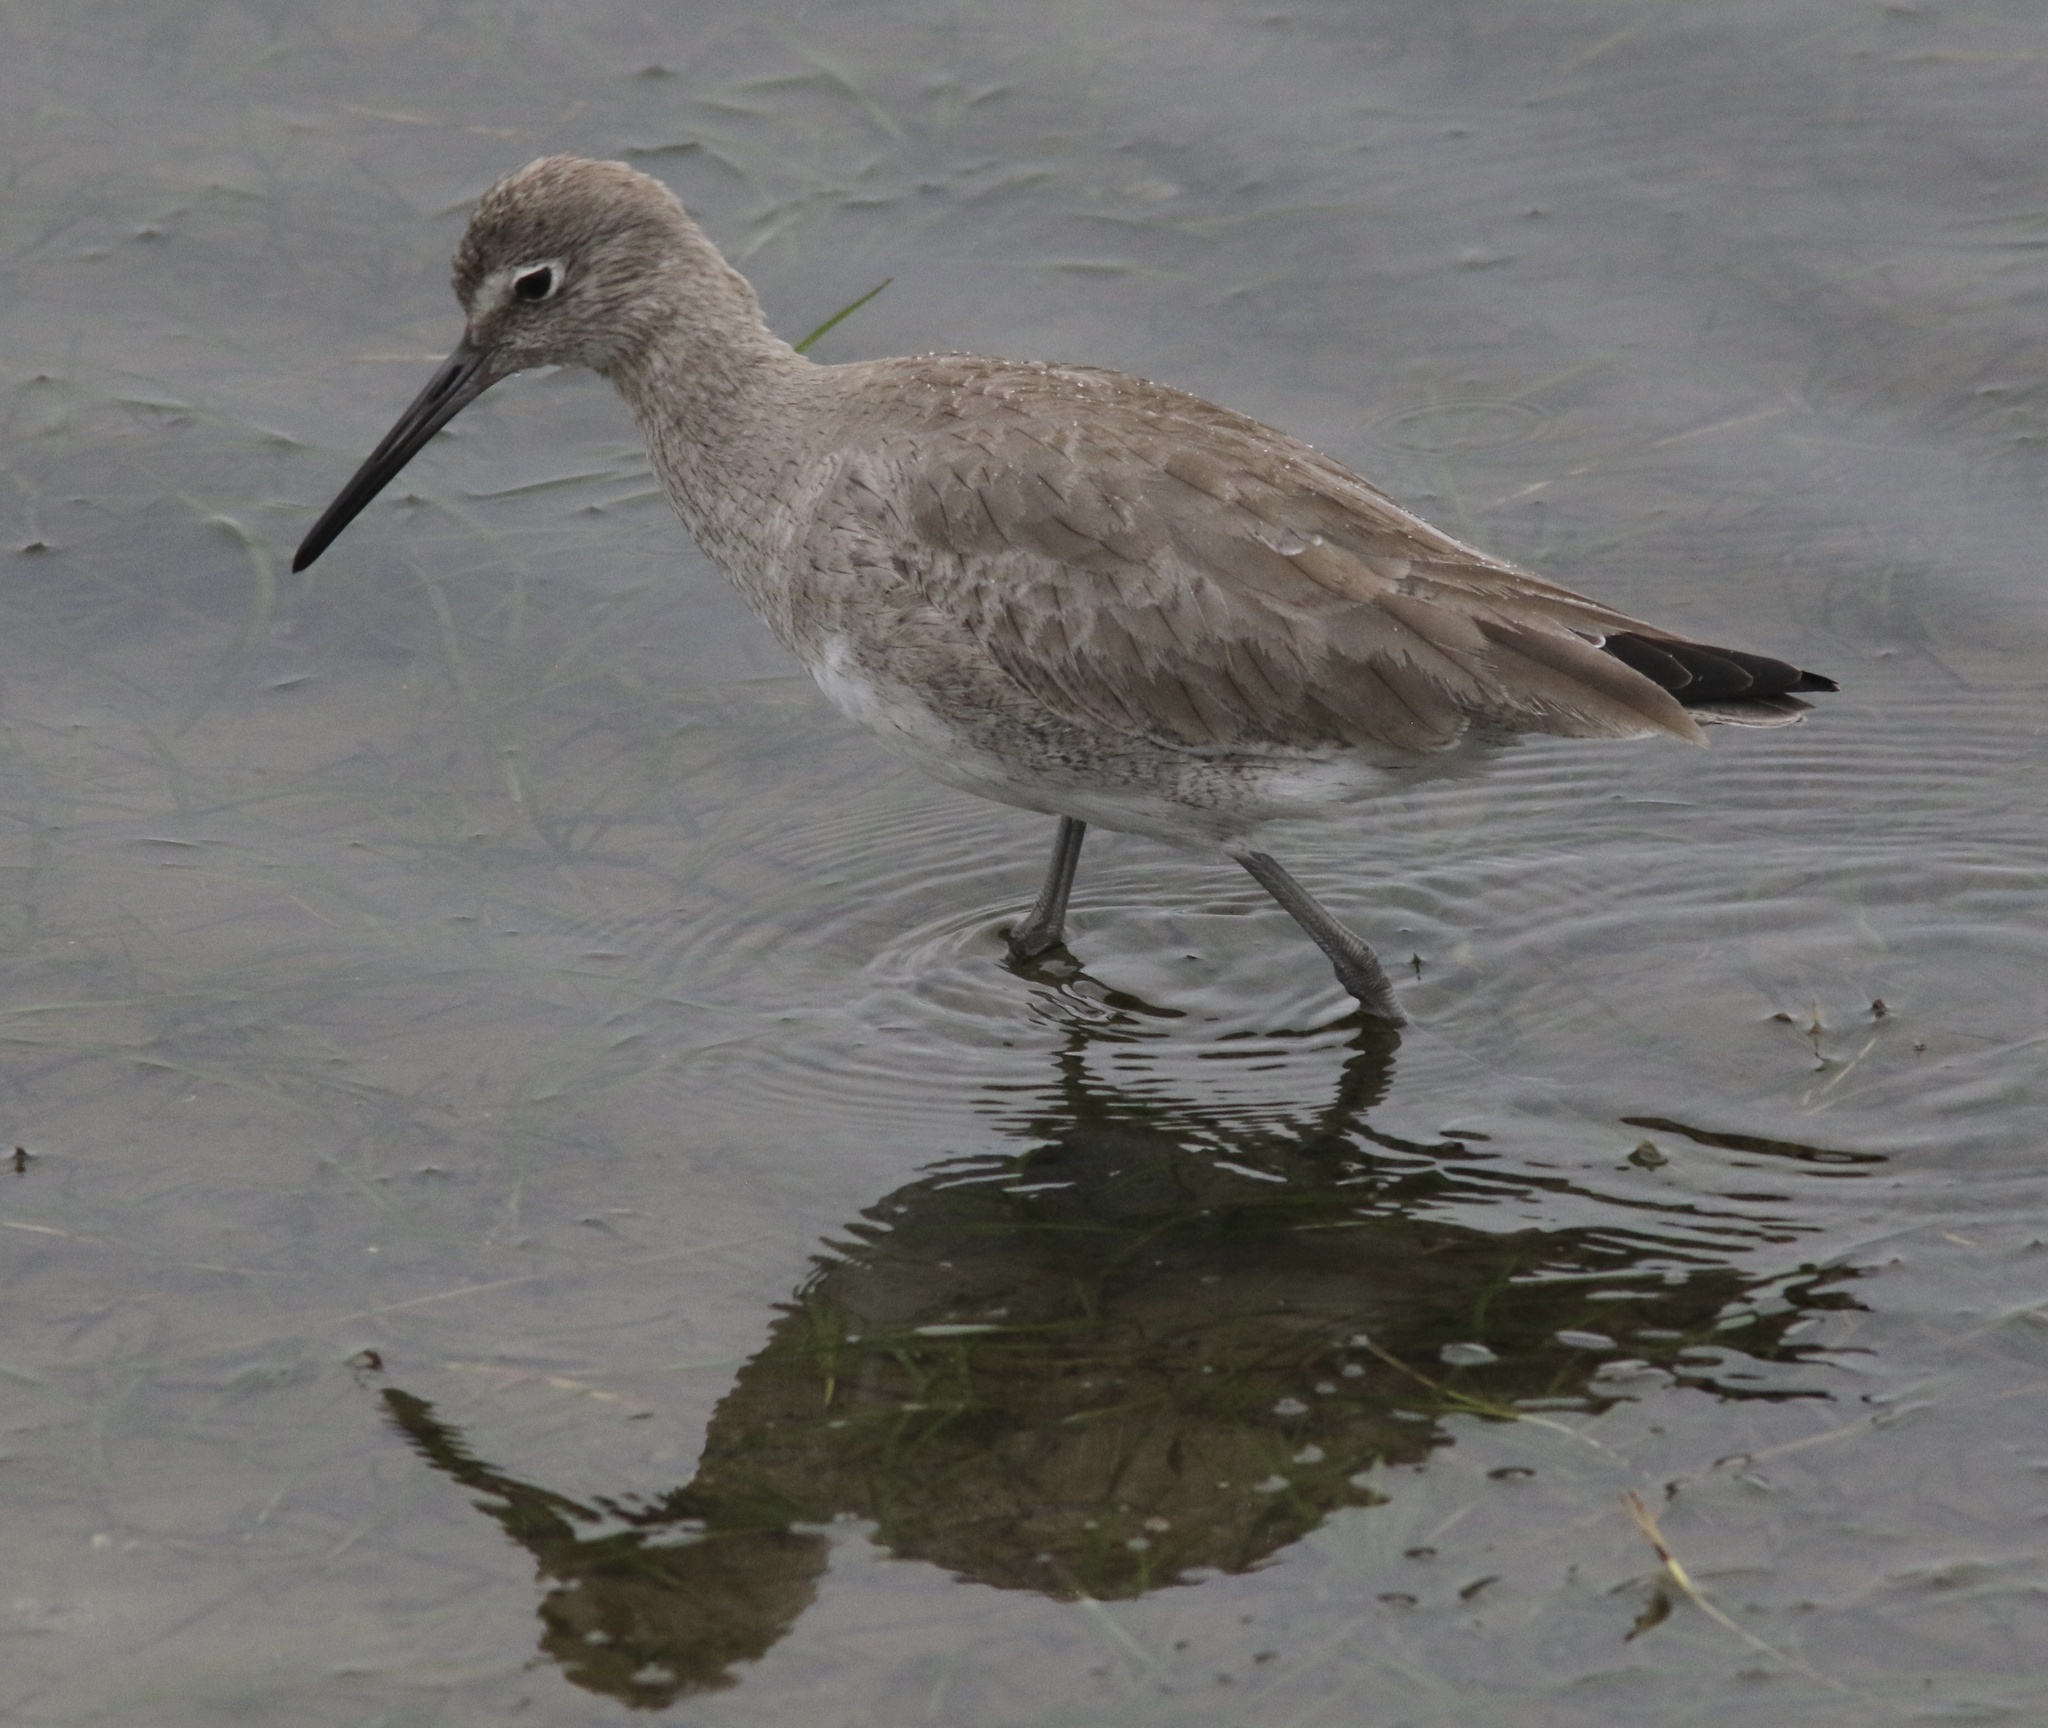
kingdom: Animalia
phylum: Chordata
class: Aves
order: Charadriiformes
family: Scolopacidae
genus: Tringa
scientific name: Tringa semipalmata
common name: Willet
